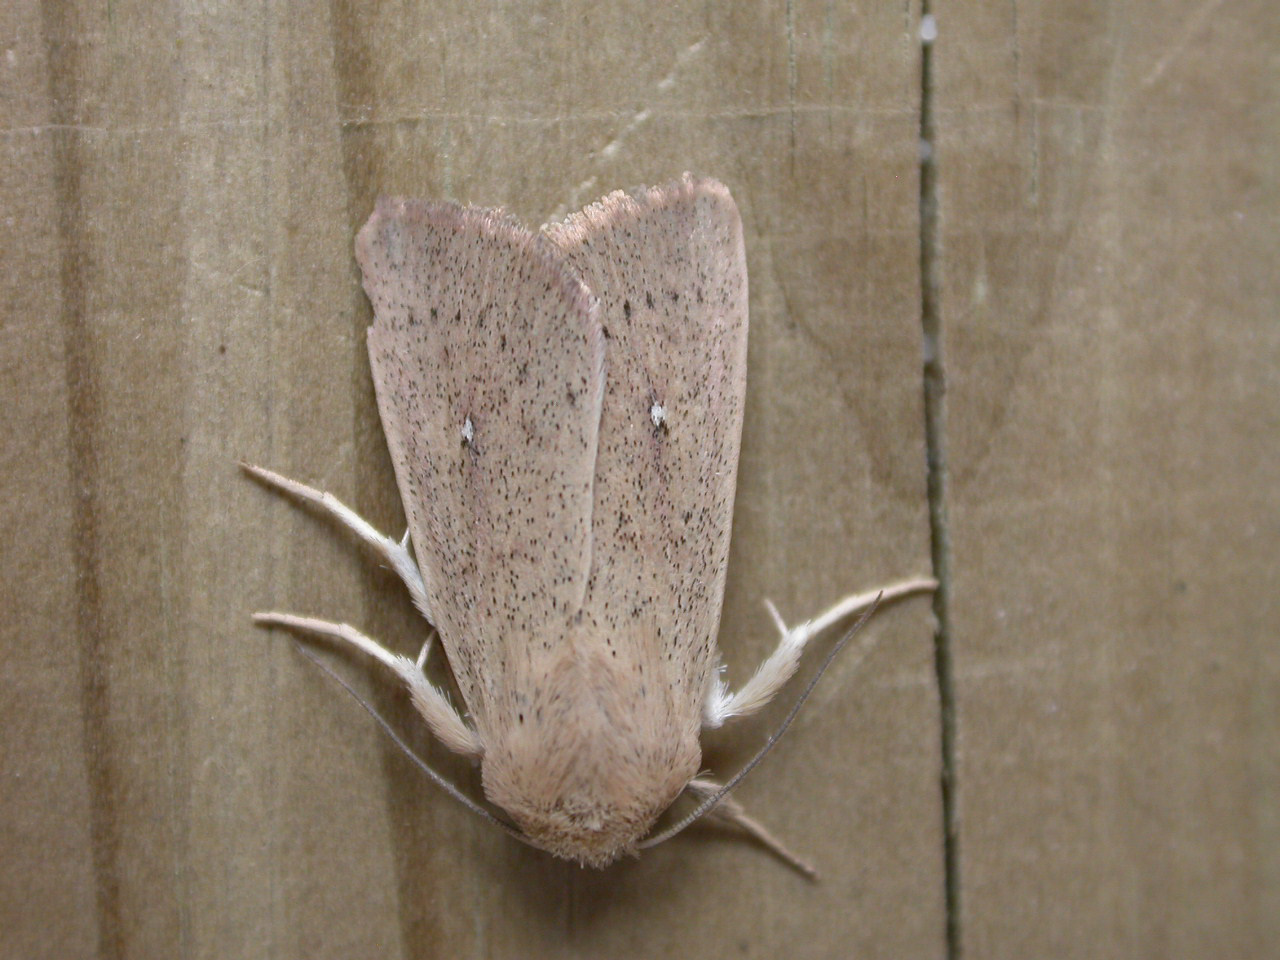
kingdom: Animalia
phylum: Arthropoda
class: Insecta
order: Lepidoptera
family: Noctuidae
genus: Mythimna
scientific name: Mythimna sicula
